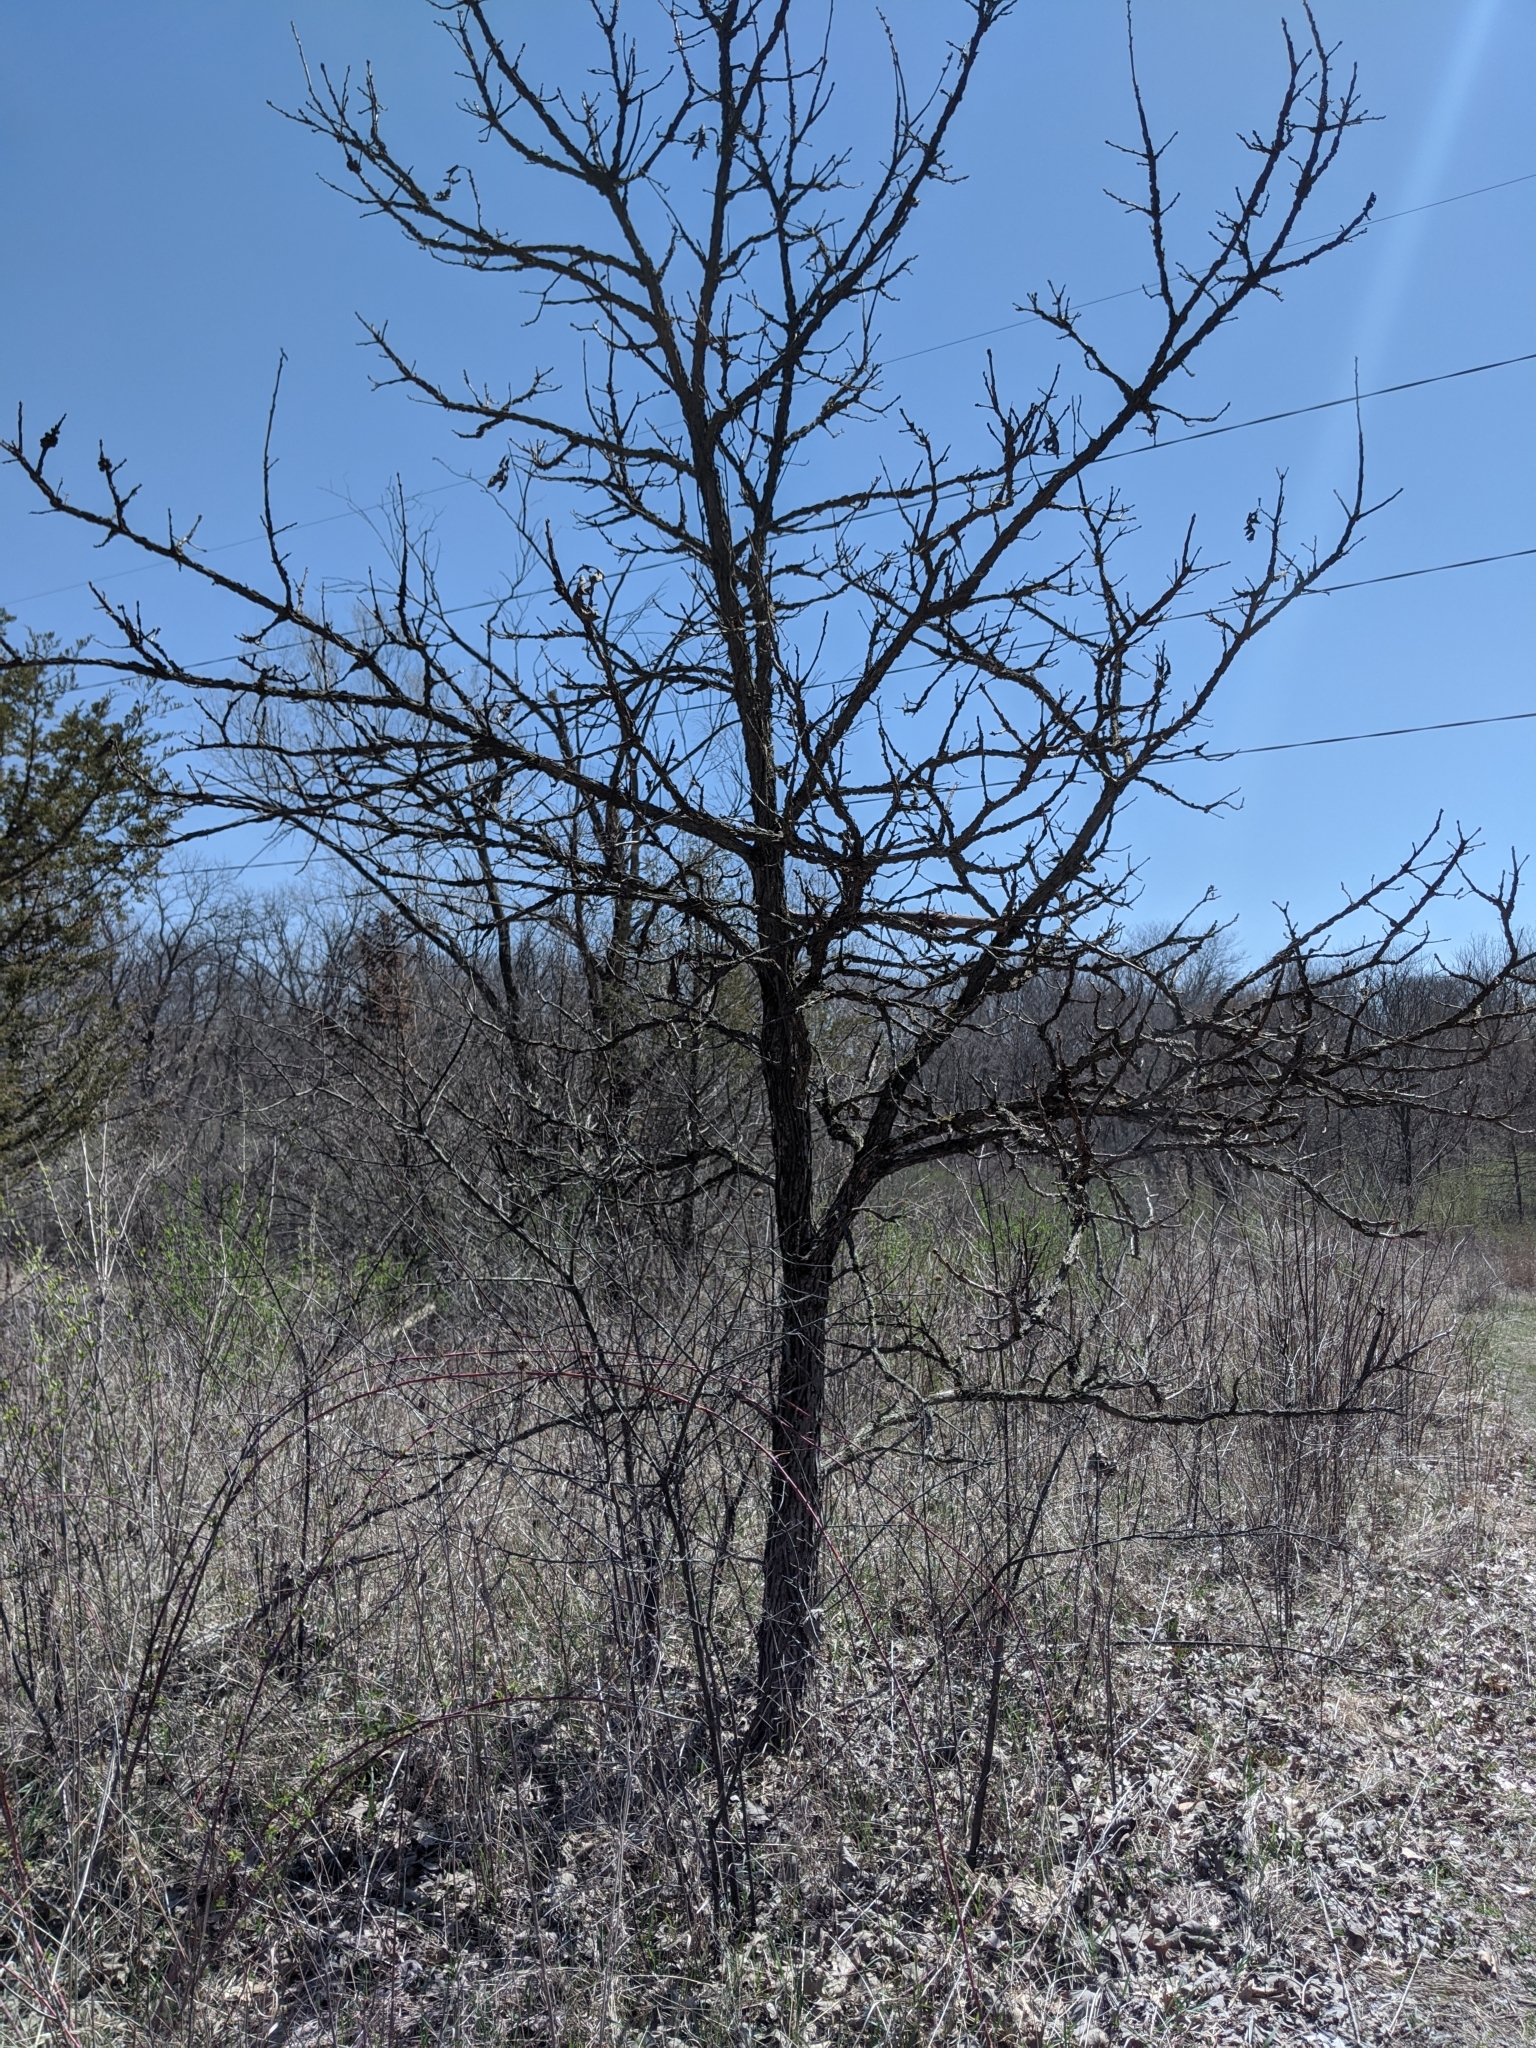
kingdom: Animalia
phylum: Arthropoda
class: Insecta
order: Hymenoptera
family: Cynipidae
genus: Disholcaspis
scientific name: Disholcaspis
